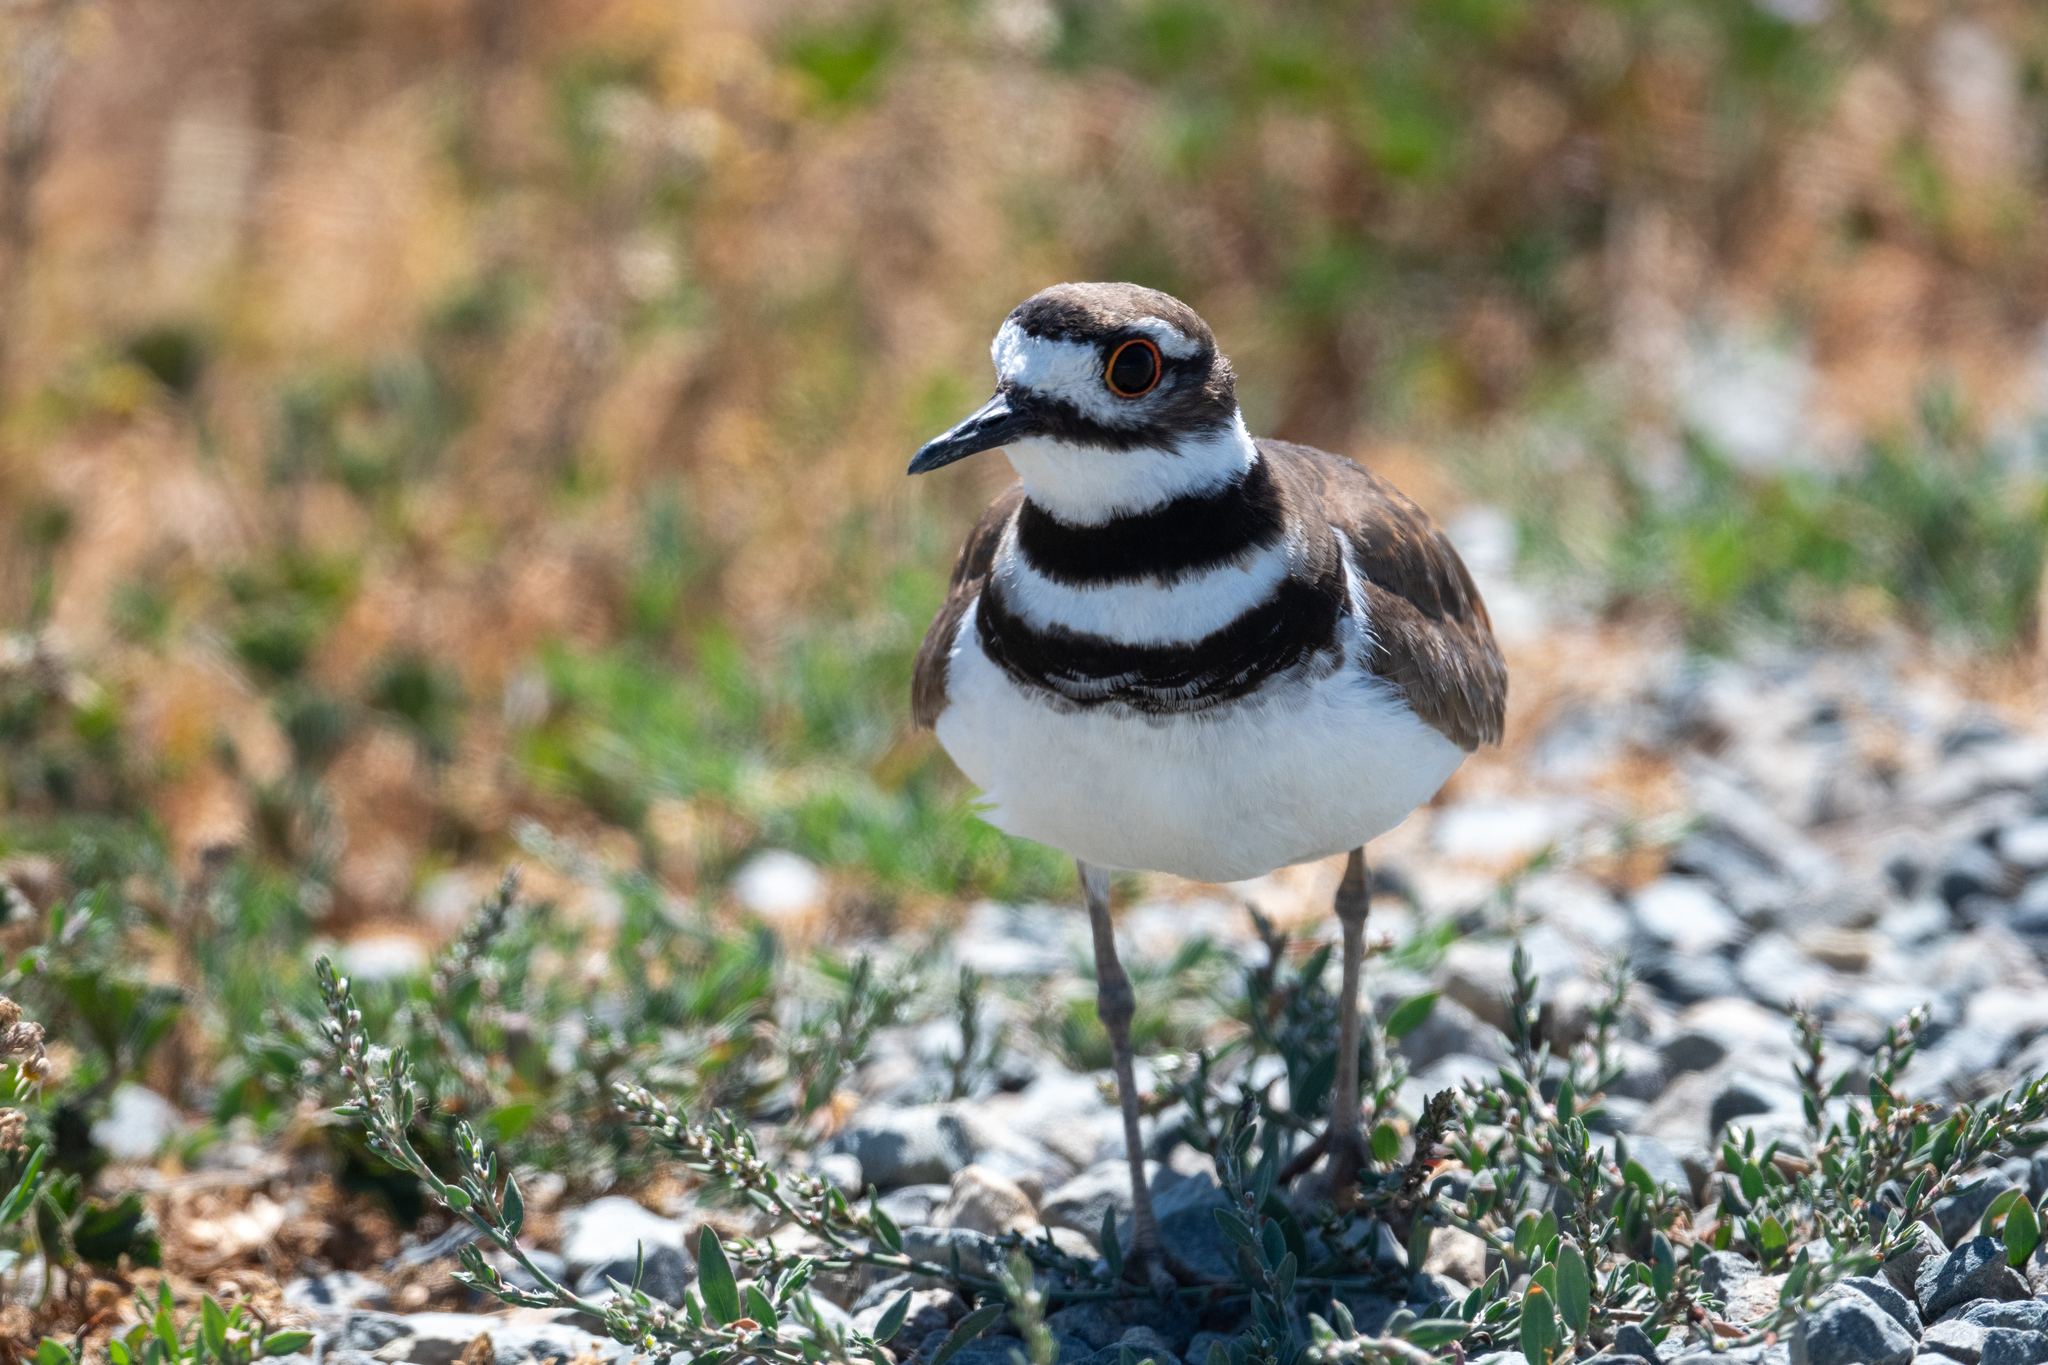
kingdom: Animalia
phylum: Chordata
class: Aves
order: Charadriiformes
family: Charadriidae
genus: Charadrius
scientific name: Charadrius vociferus
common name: Killdeer
